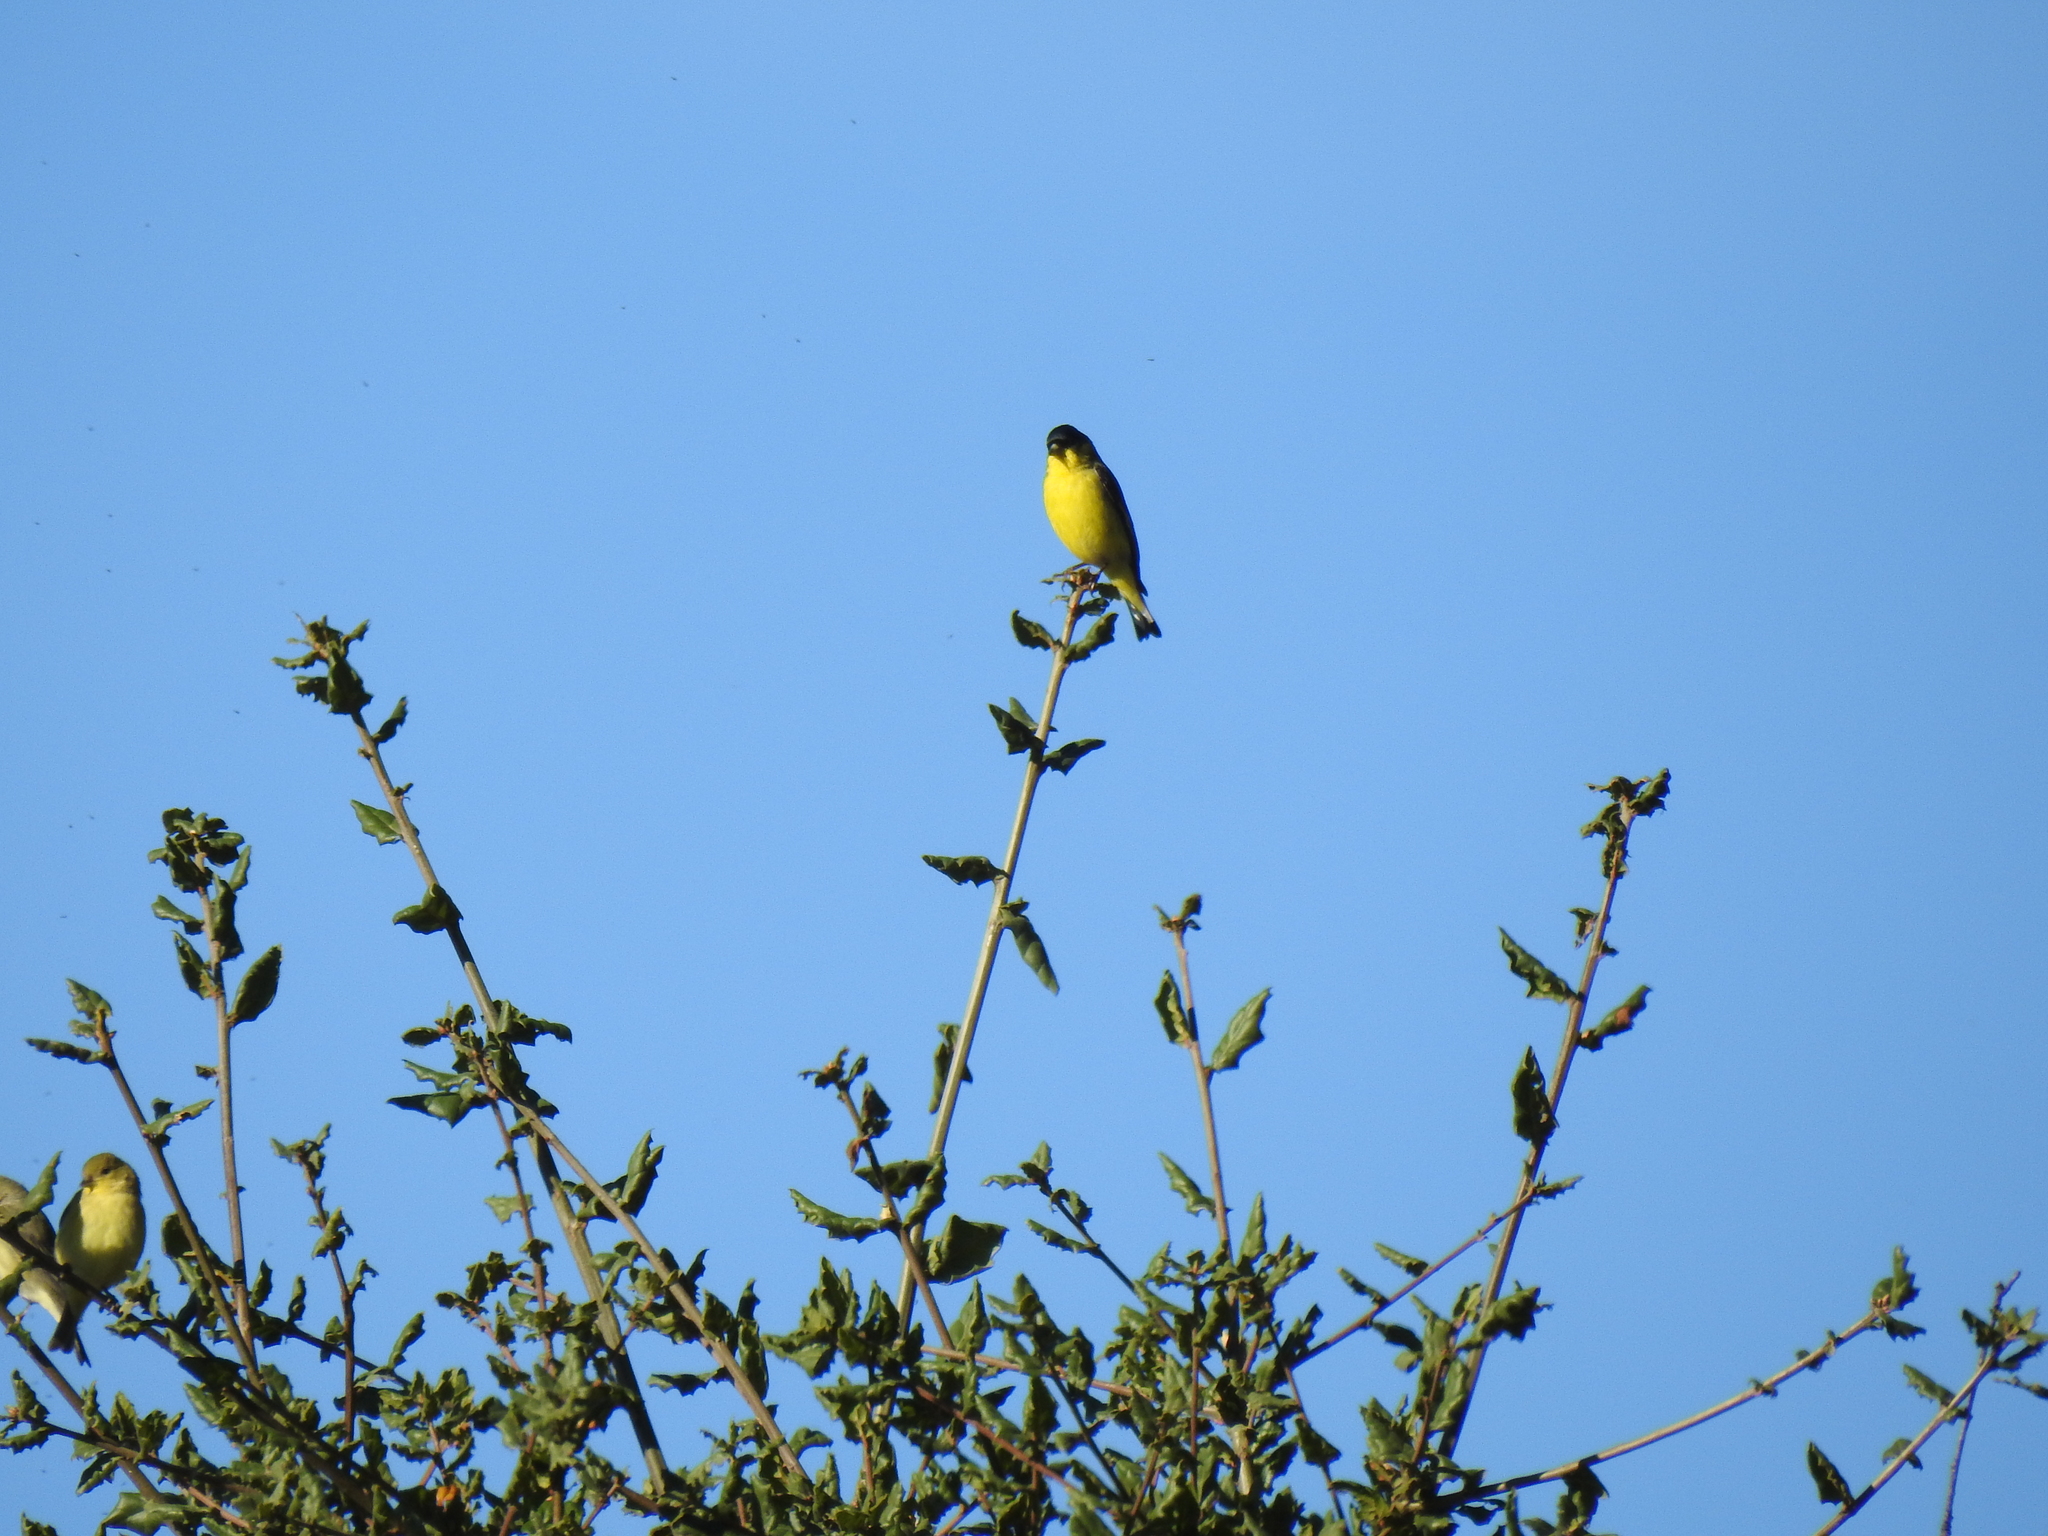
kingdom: Animalia
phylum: Chordata
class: Aves
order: Passeriformes
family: Fringillidae
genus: Spinus
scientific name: Spinus psaltria
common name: Lesser goldfinch
